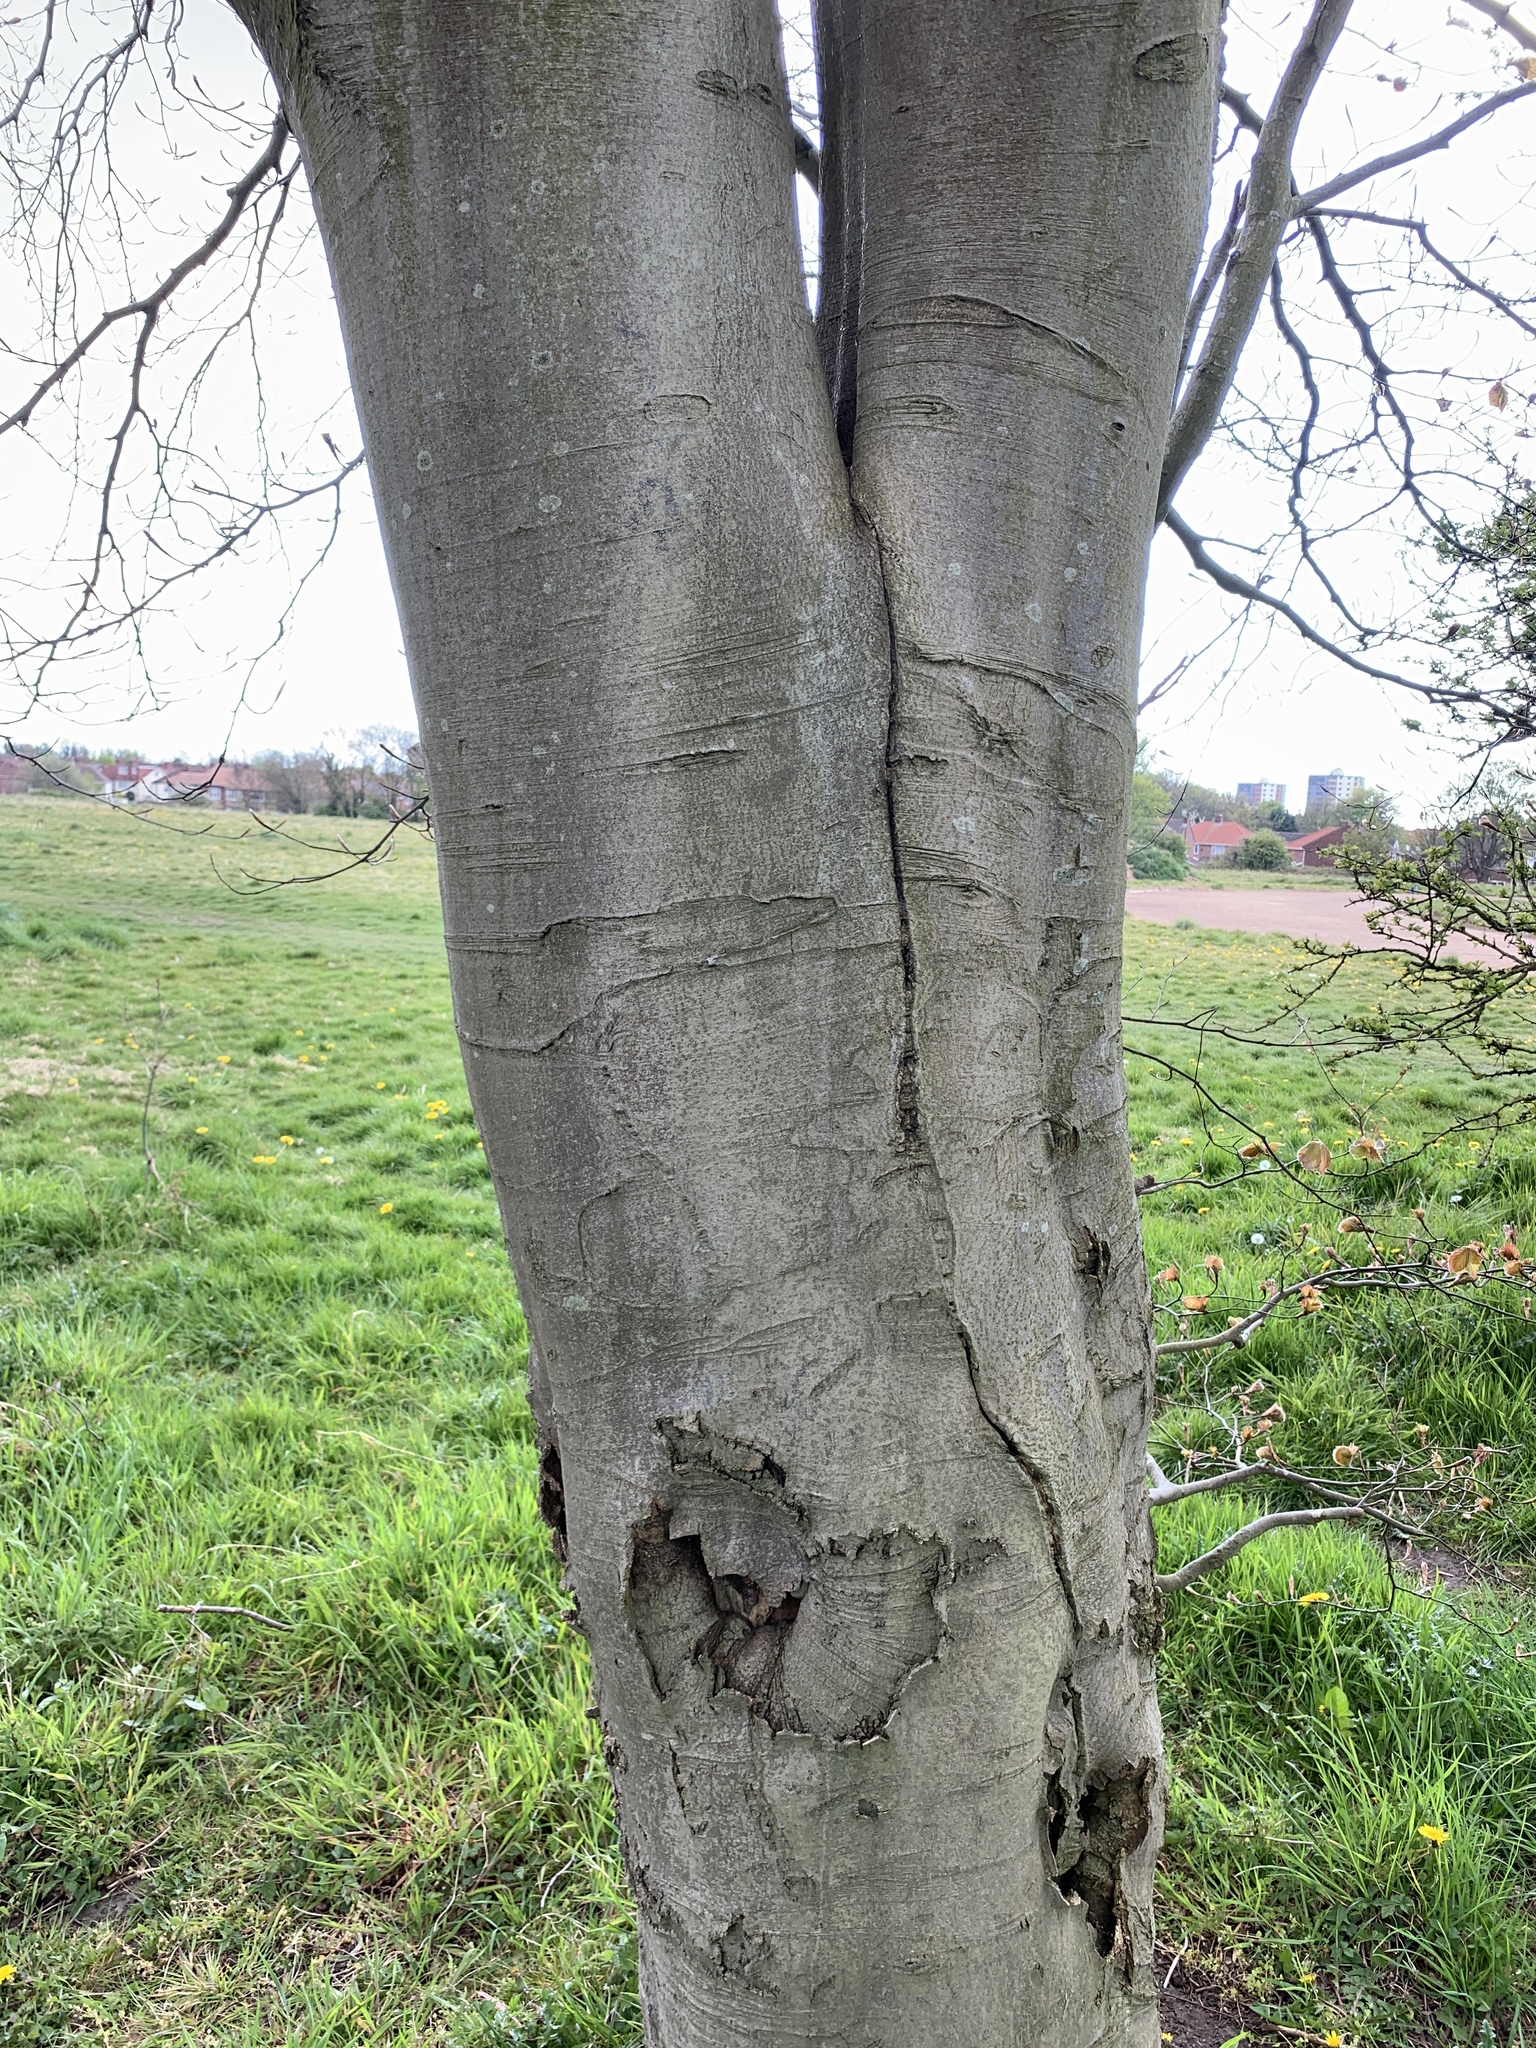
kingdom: Plantae
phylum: Tracheophyta
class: Magnoliopsida
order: Fagales
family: Fagaceae
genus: Fagus
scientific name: Fagus sylvatica
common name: Beech
